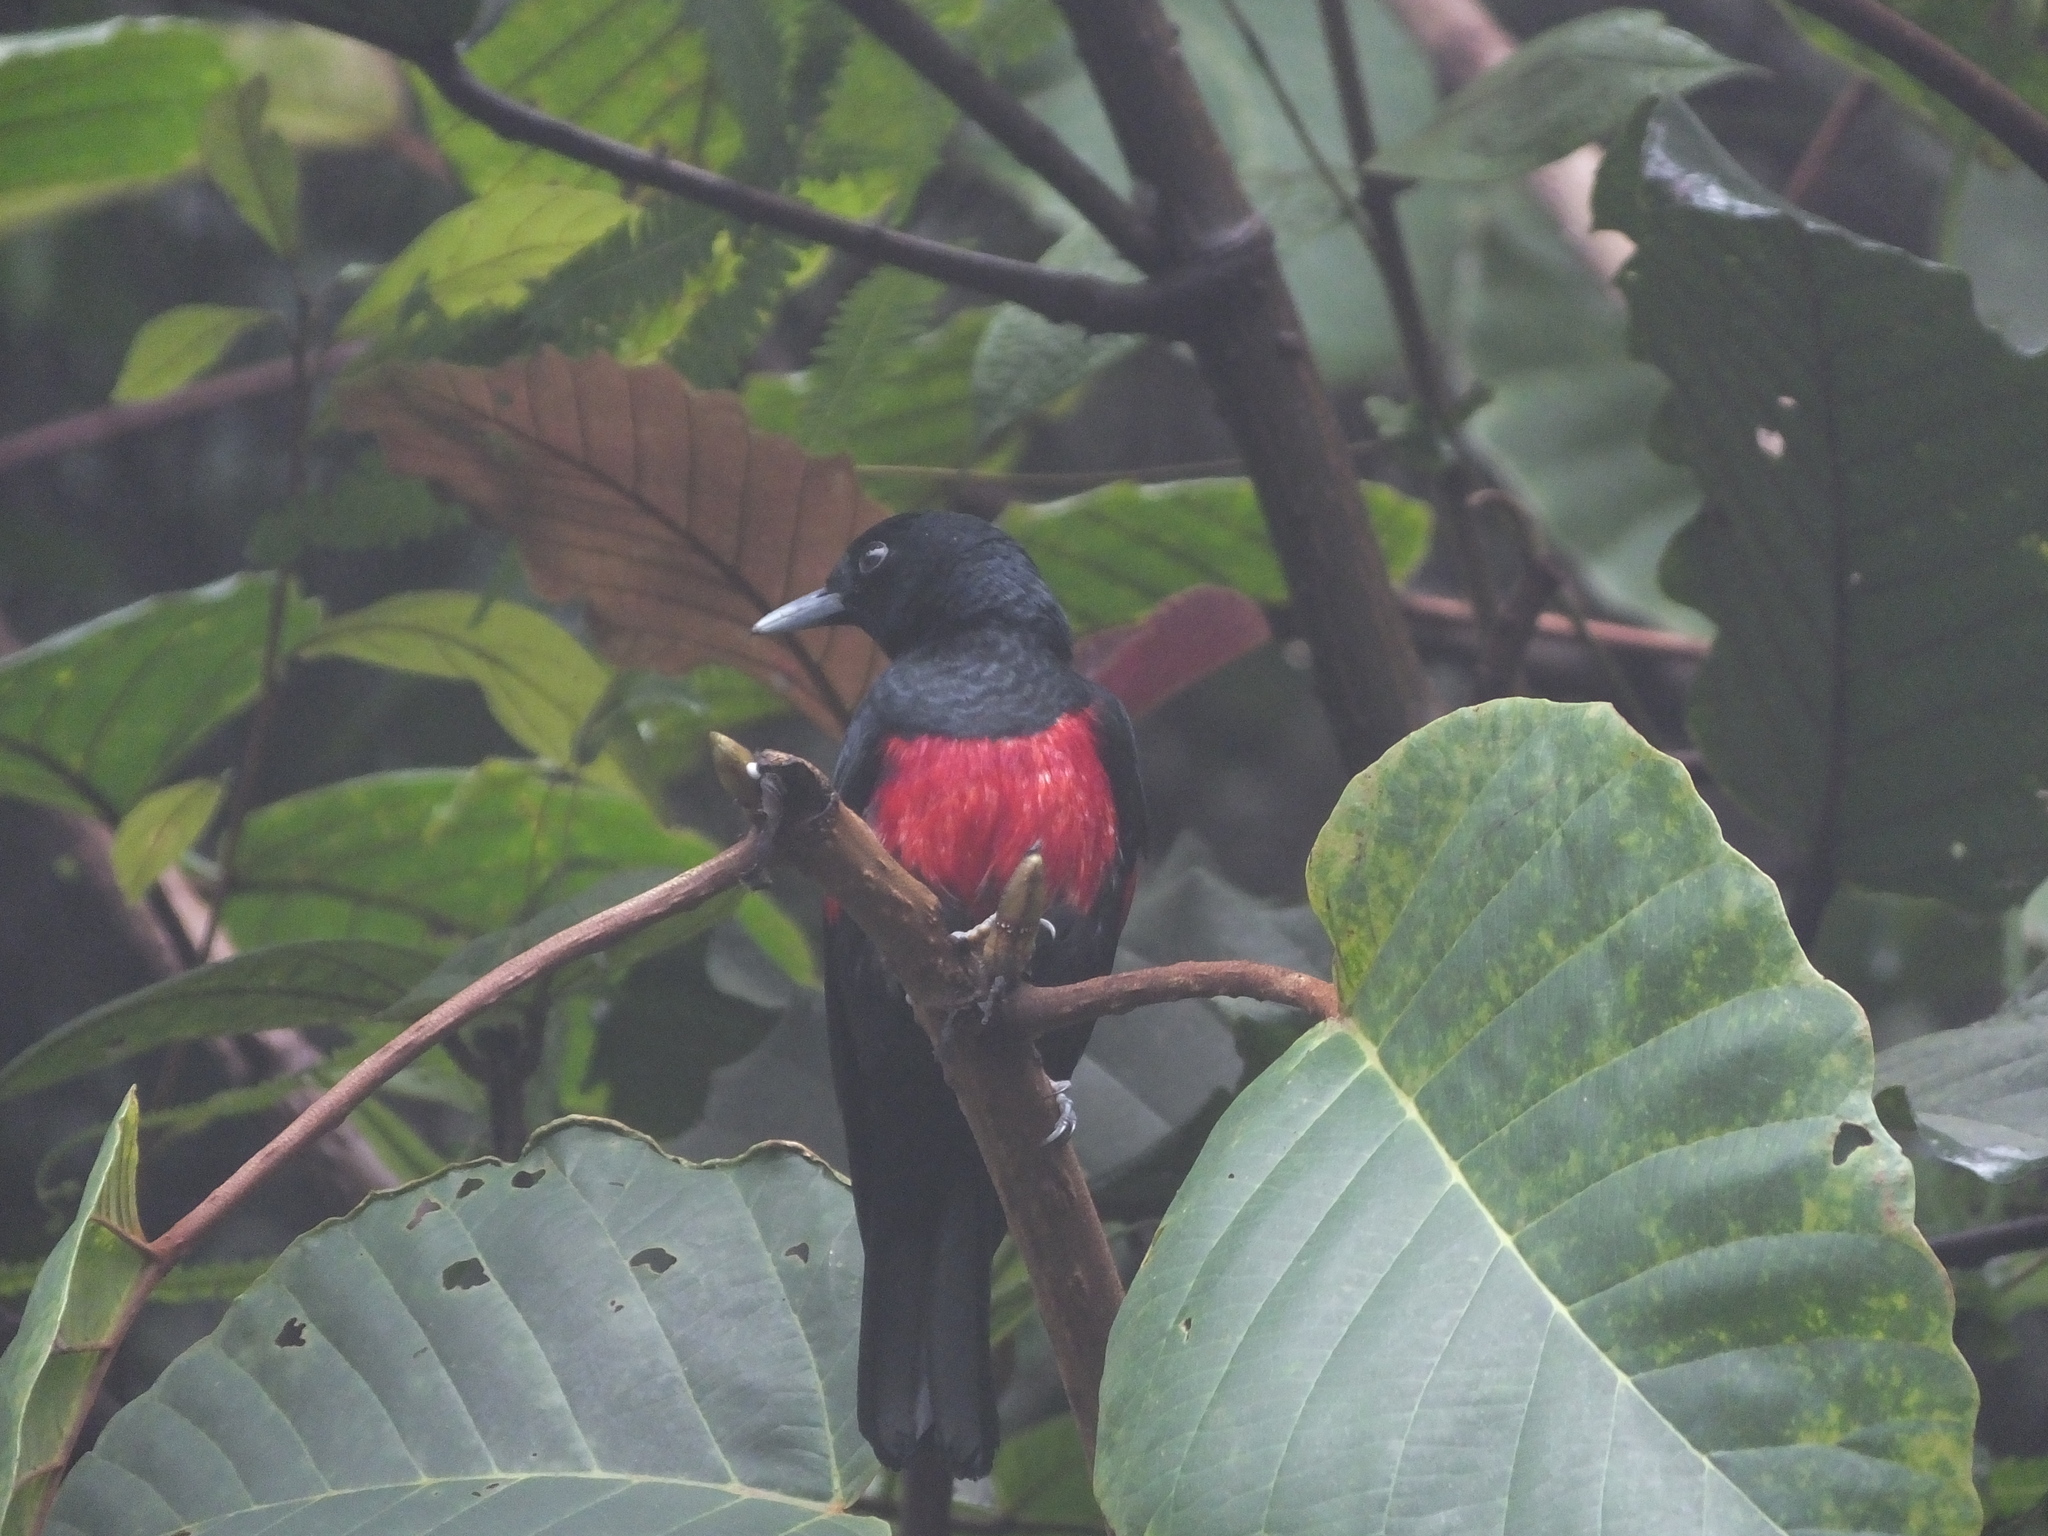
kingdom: Animalia
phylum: Chordata
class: Aves
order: Passeriformes
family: Oriolidae
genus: Oriolus
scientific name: Oriolus cruentus
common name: Black-and-crimson oriole
